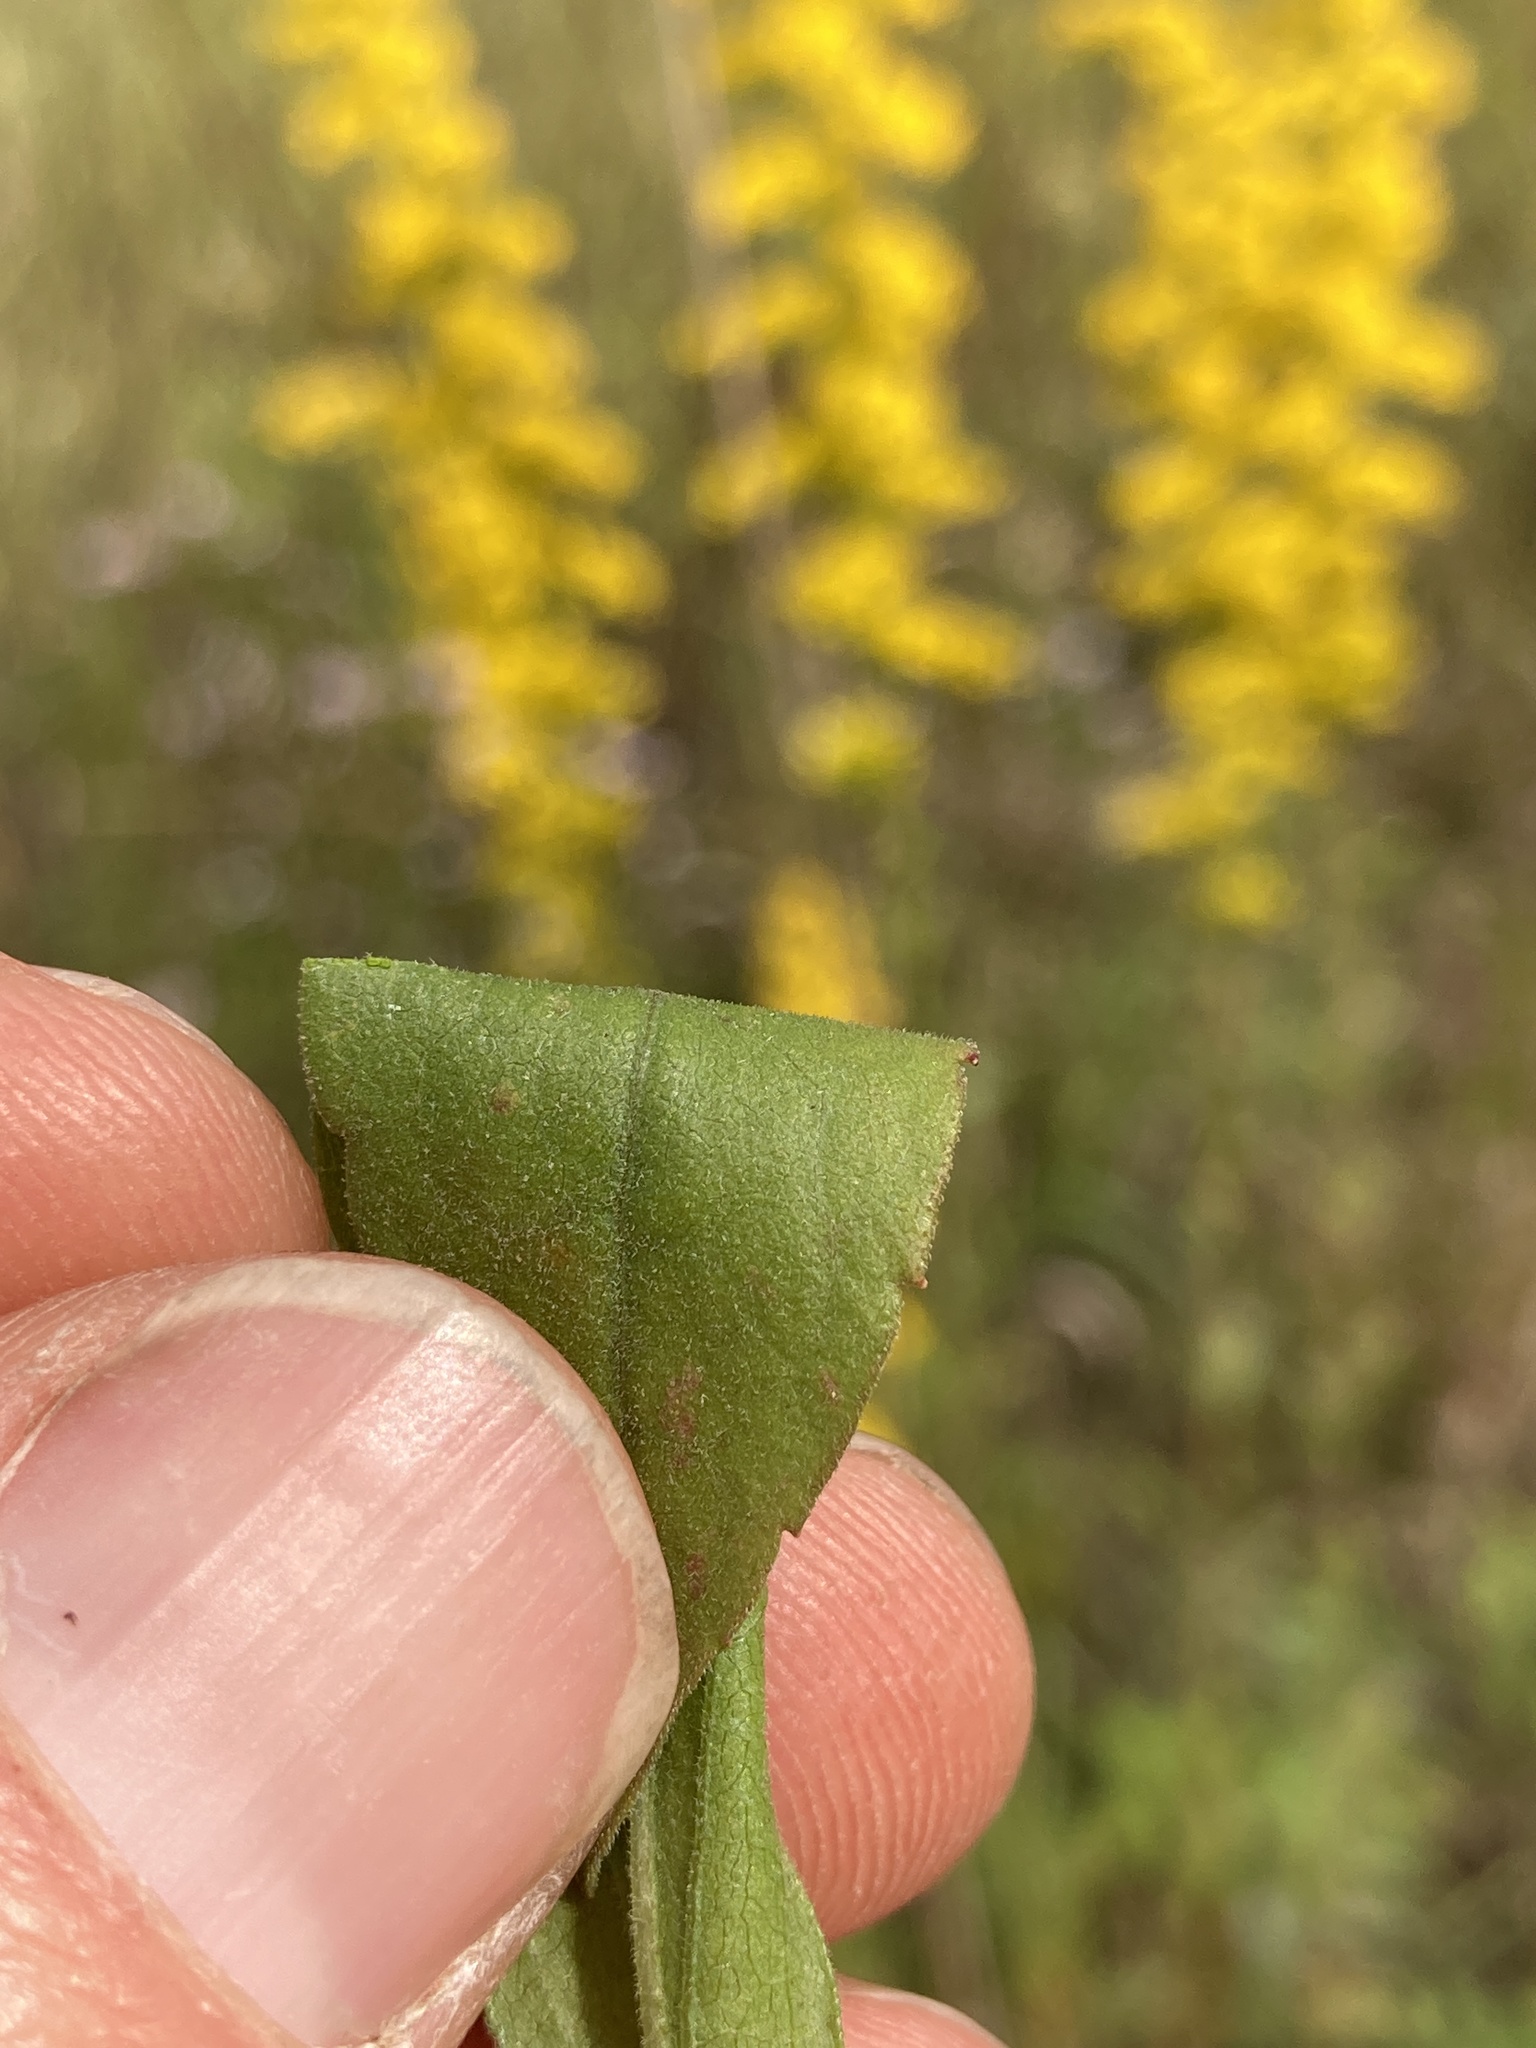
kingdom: Plantae
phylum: Tracheophyta
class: Magnoliopsida
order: Asterales
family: Asteraceae
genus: Solidago
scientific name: Solidago nemoralis
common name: Grey goldenrod
